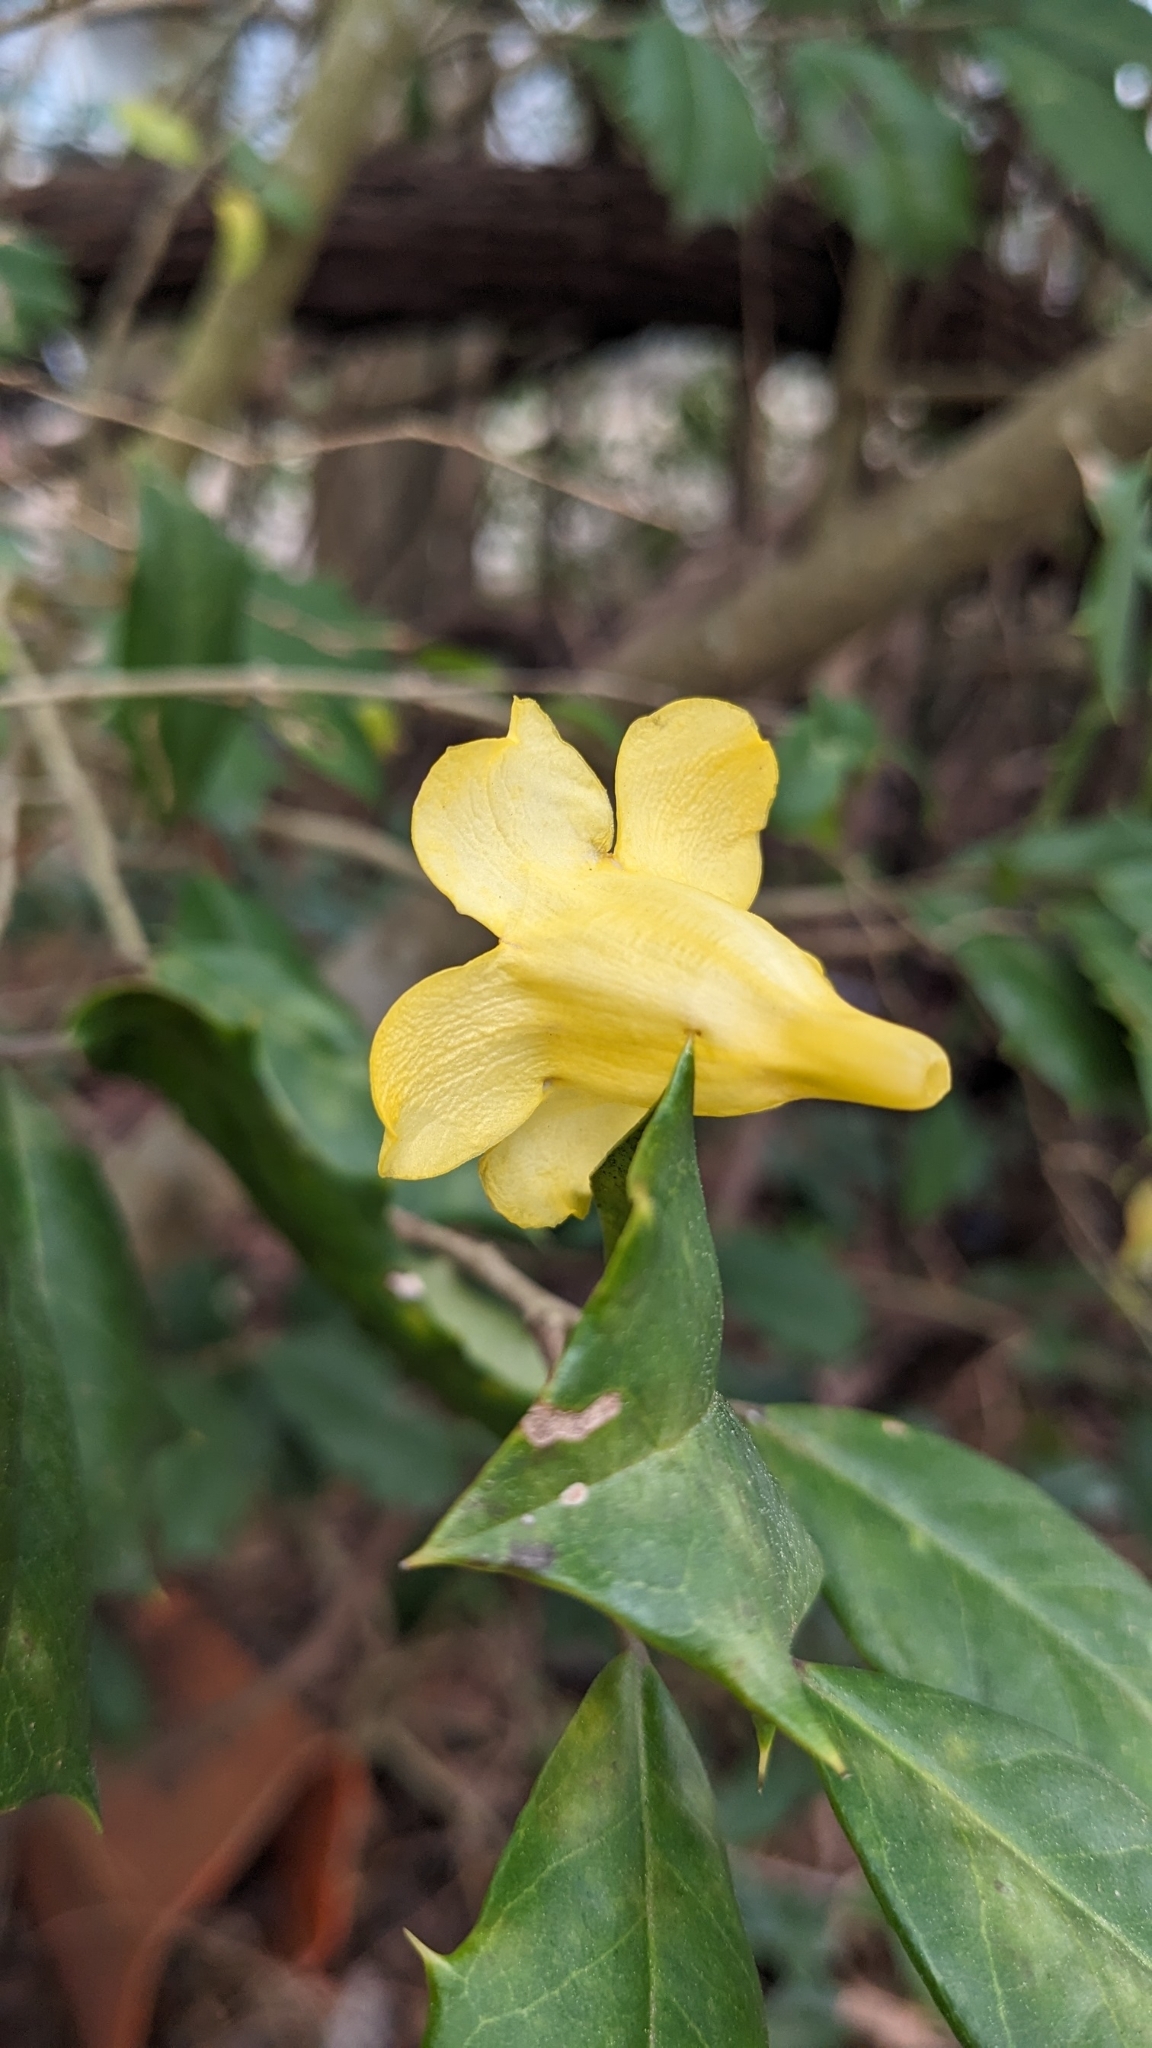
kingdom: Plantae
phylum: Tracheophyta
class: Magnoliopsida
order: Gentianales
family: Gelsemiaceae
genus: Gelsemium
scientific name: Gelsemium sempervirens
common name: Carolina-jasmine
